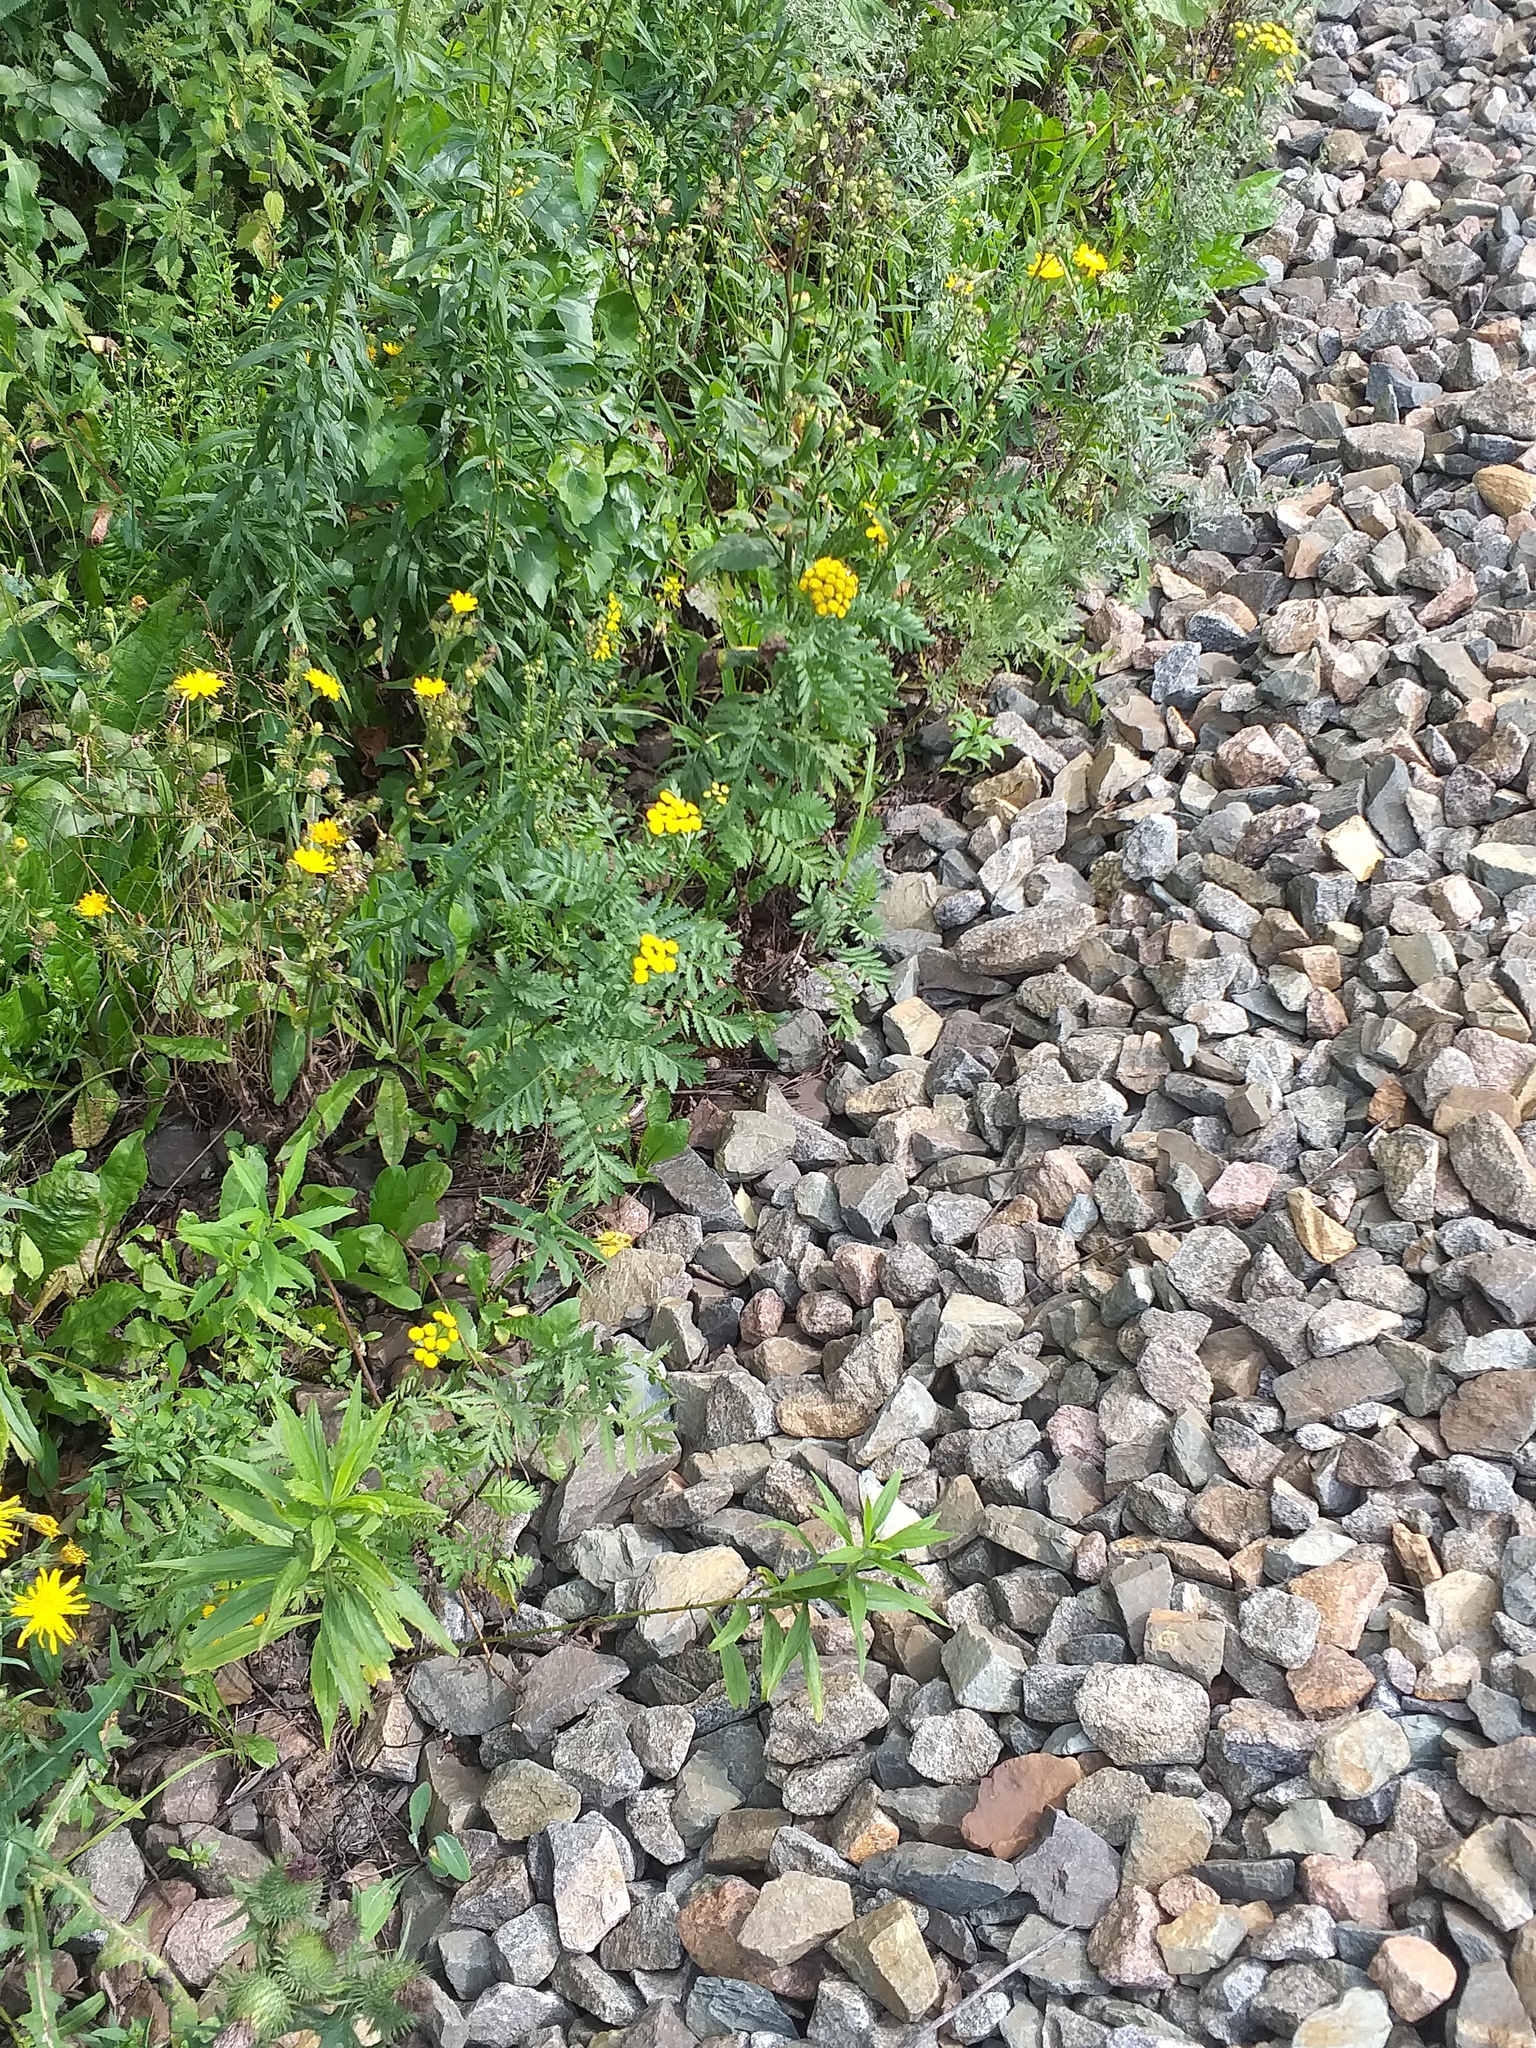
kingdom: Plantae
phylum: Tracheophyta
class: Magnoliopsida
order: Asterales
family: Asteraceae
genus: Tanacetum
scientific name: Tanacetum vulgare
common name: Common tansy
